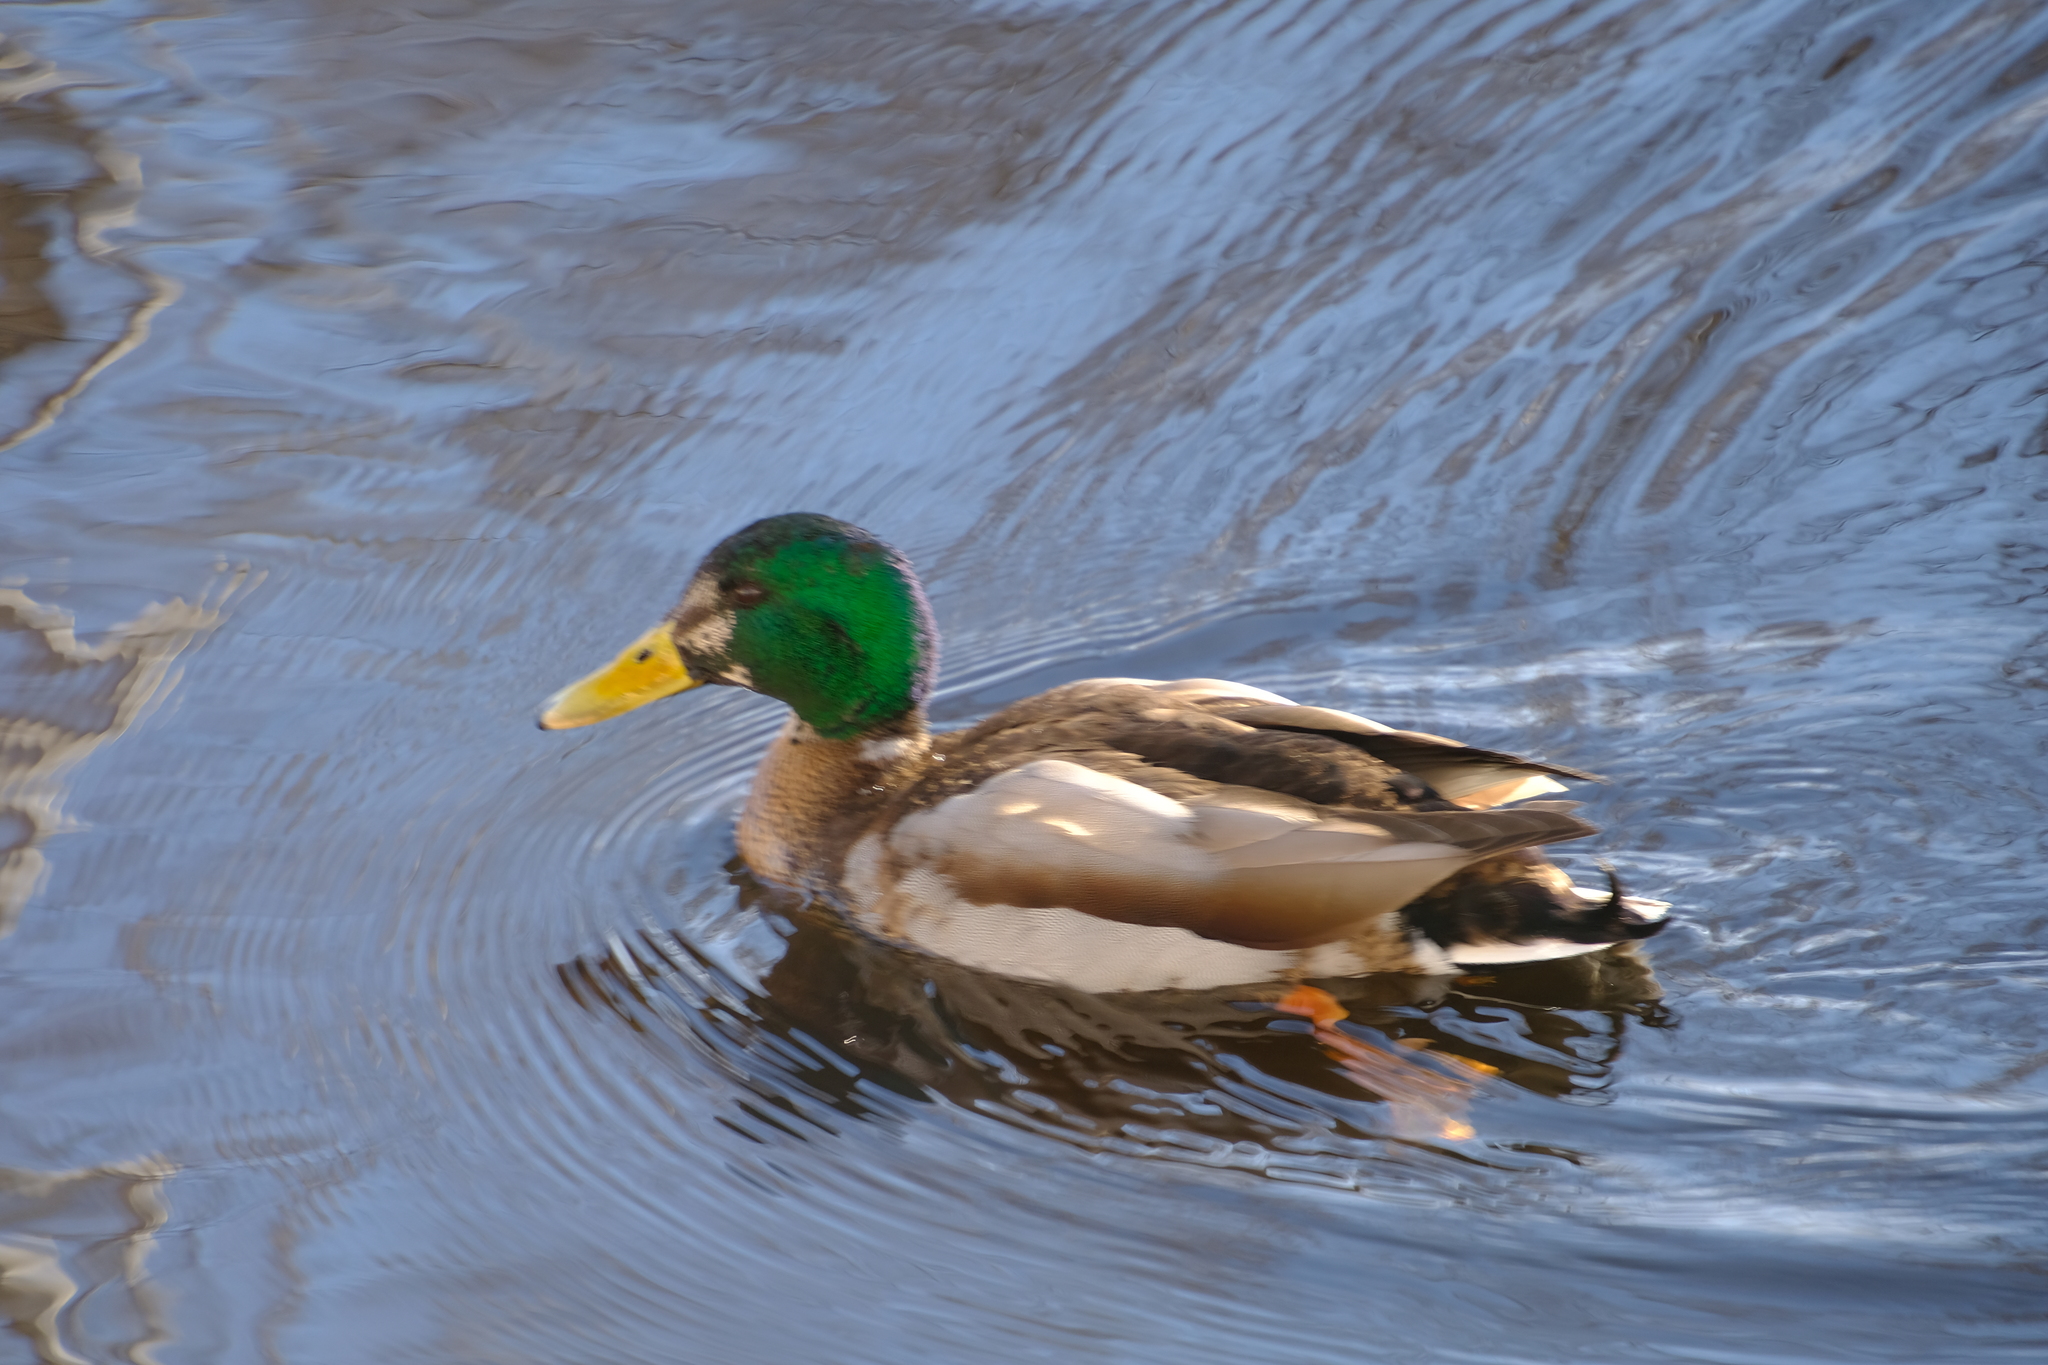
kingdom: Animalia
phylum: Chordata
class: Aves
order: Anseriformes
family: Anatidae
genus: Anas
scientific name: Anas platyrhynchos
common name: Mallard
